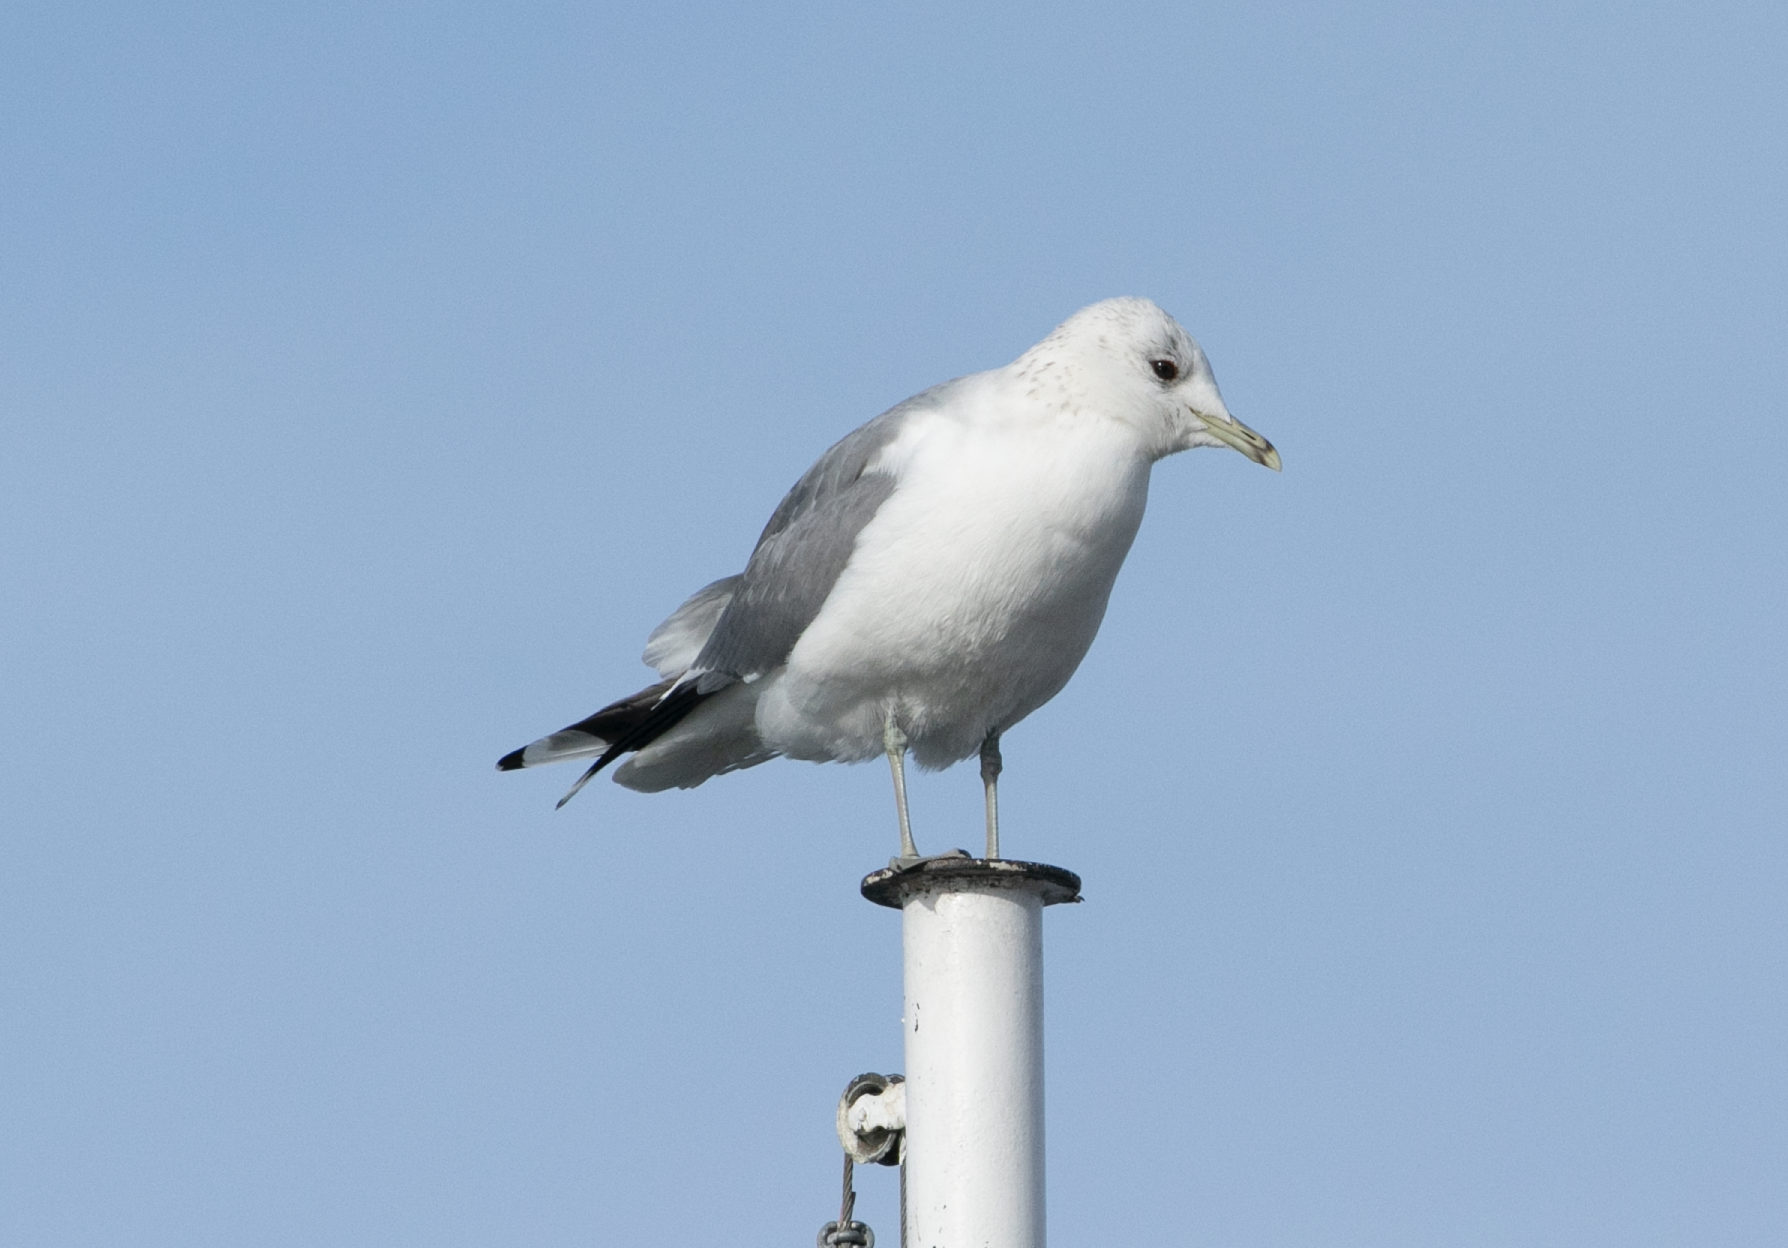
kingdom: Animalia
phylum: Chordata
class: Aves
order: Charadriiformes
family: Laridae
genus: Larus
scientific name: Larus canus
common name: Mew gull
